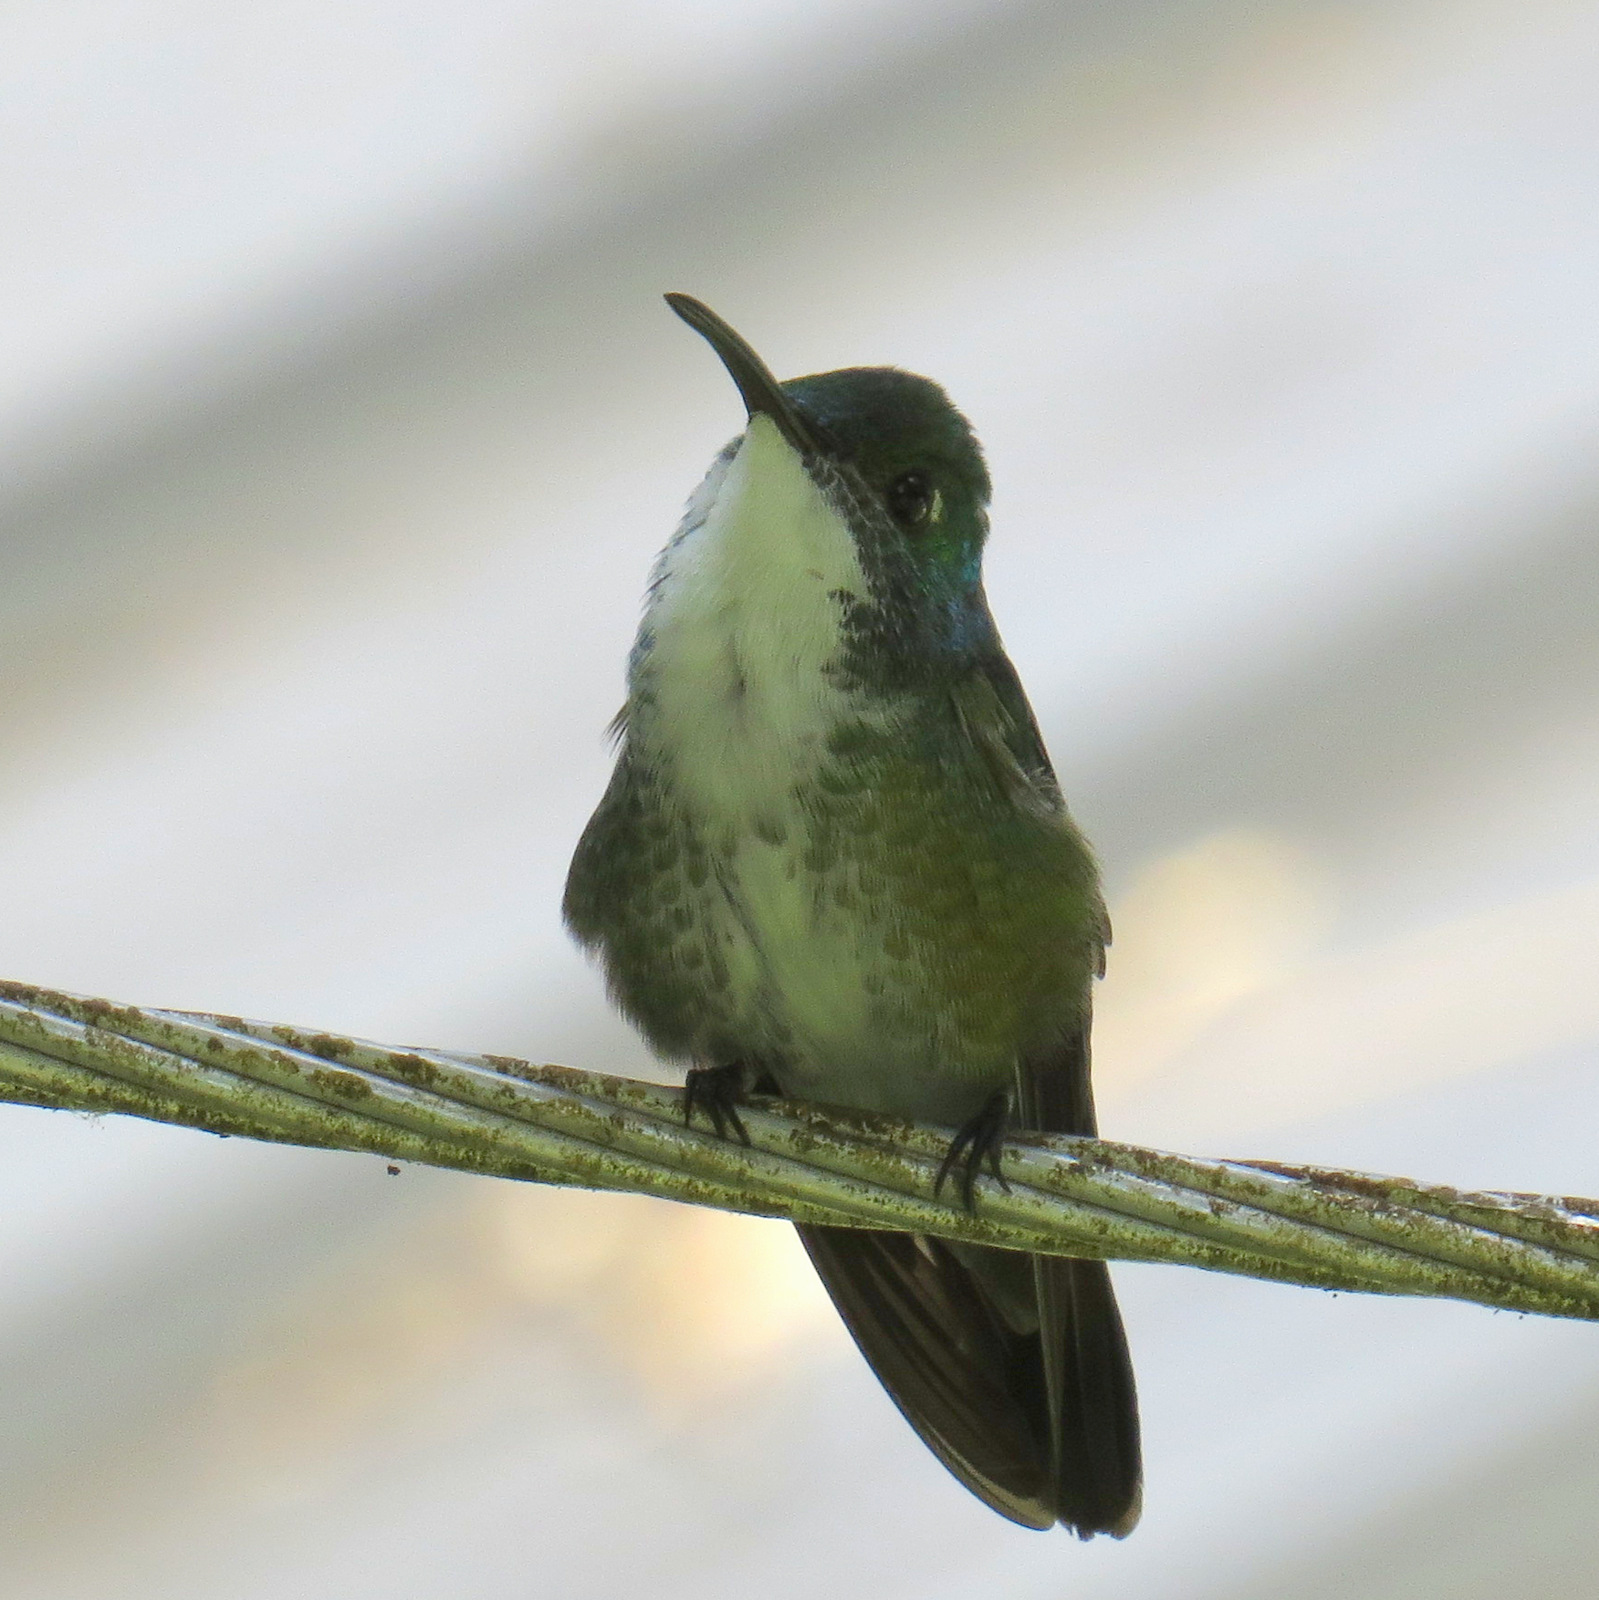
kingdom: Animalia
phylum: Chordata
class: Aves
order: Apodiformes
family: Trochilidae
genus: Chrysuronia
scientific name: Chrysuronia brevirostris
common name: White-chested emerald
